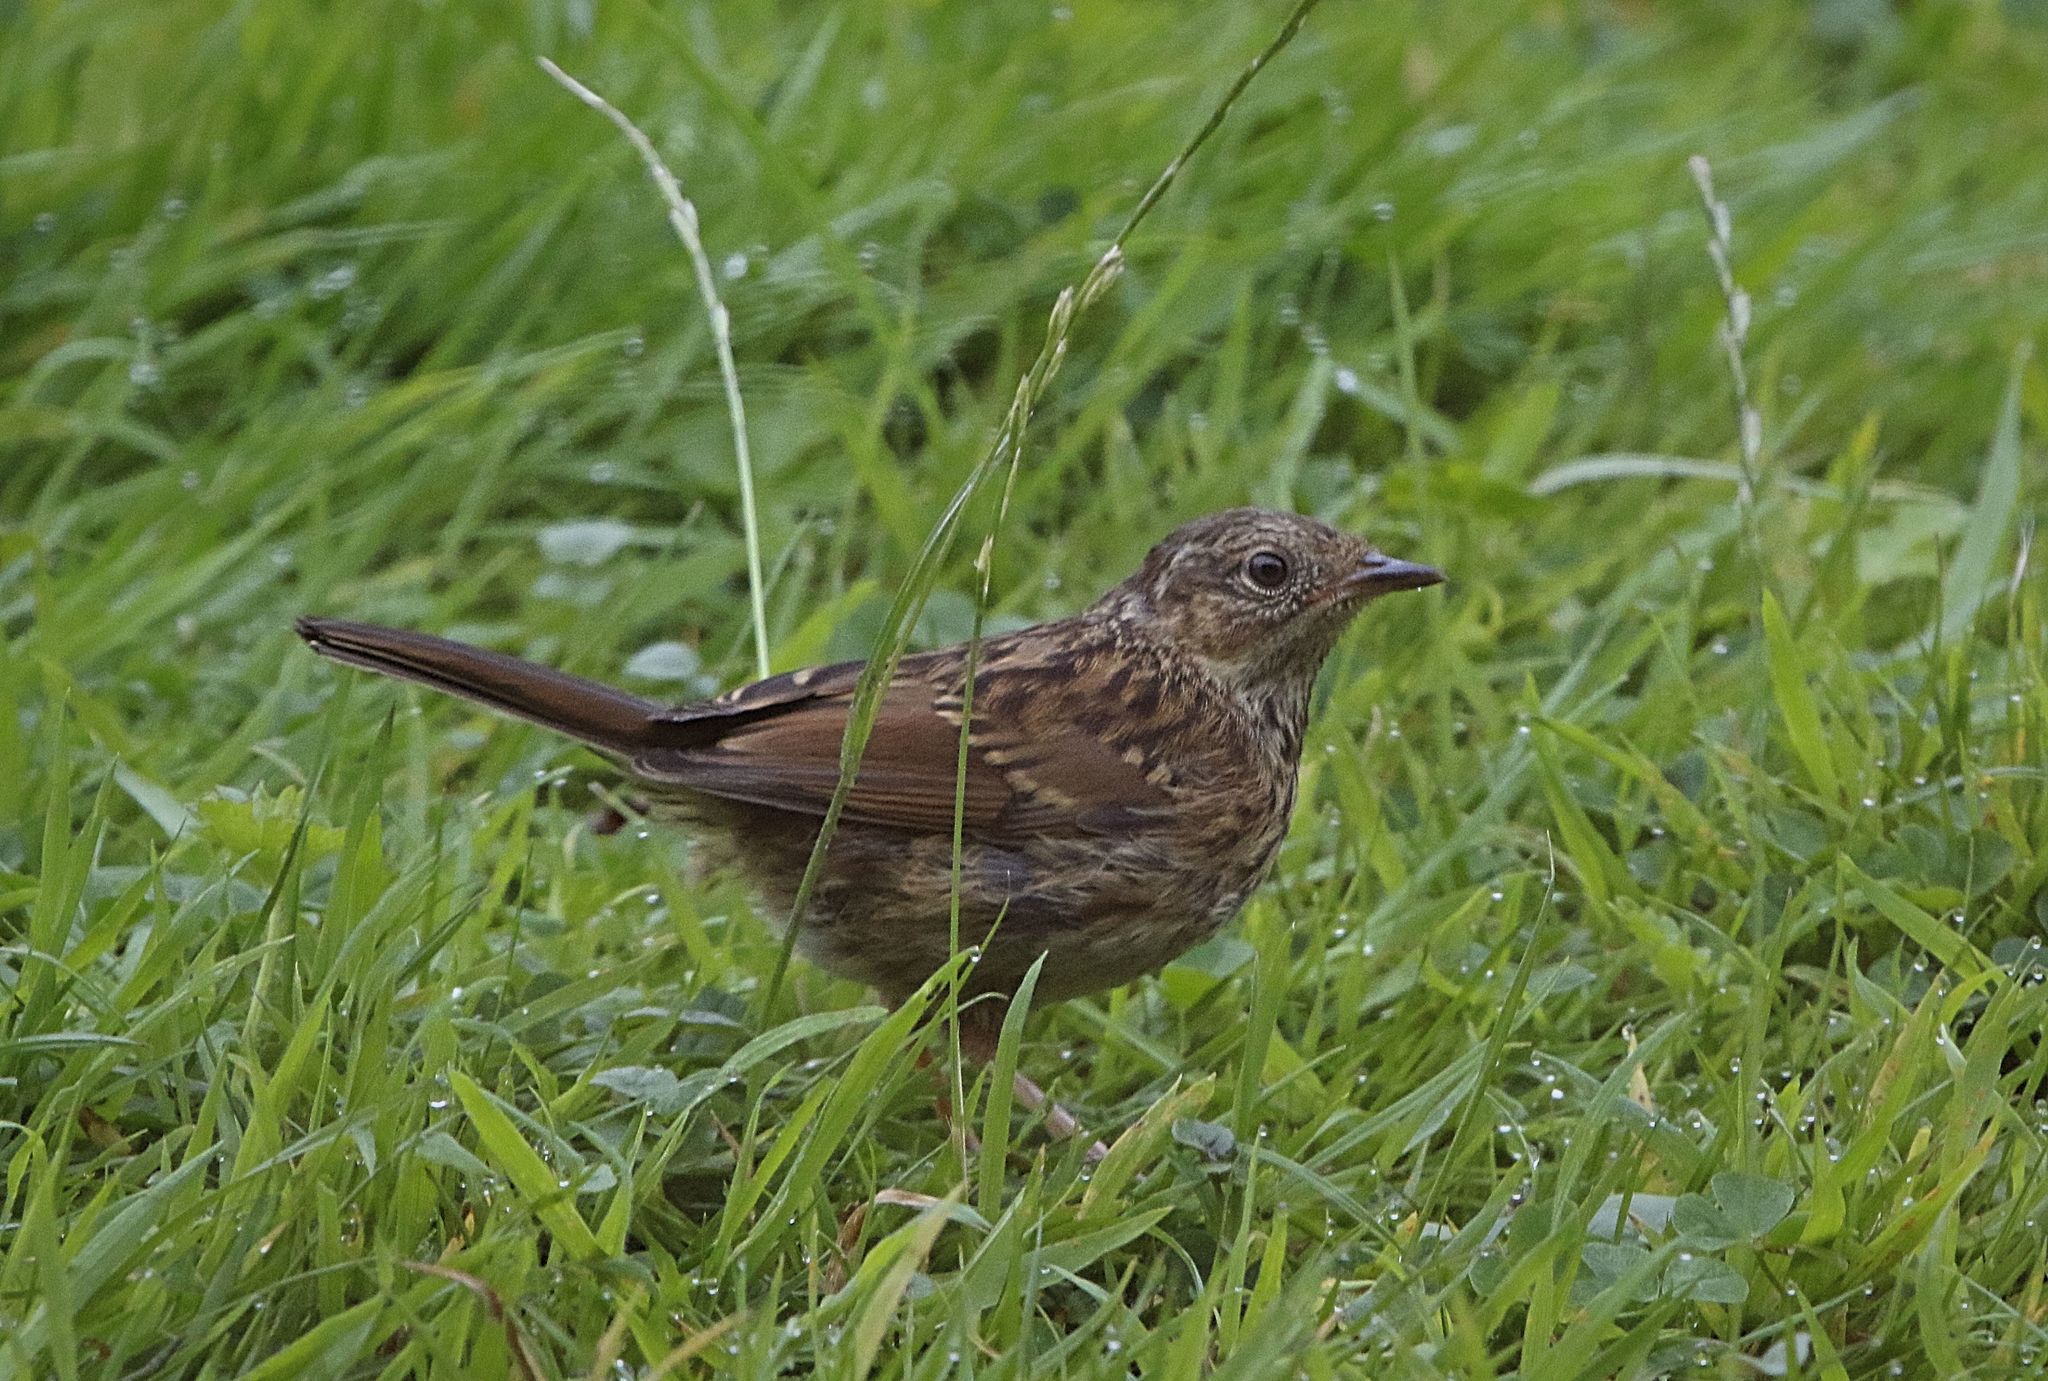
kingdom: Animalia
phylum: Chordata
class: Aves
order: Passeriformes
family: Prunellidae
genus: Prunella
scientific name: Prunella modularis
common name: Dunnock
